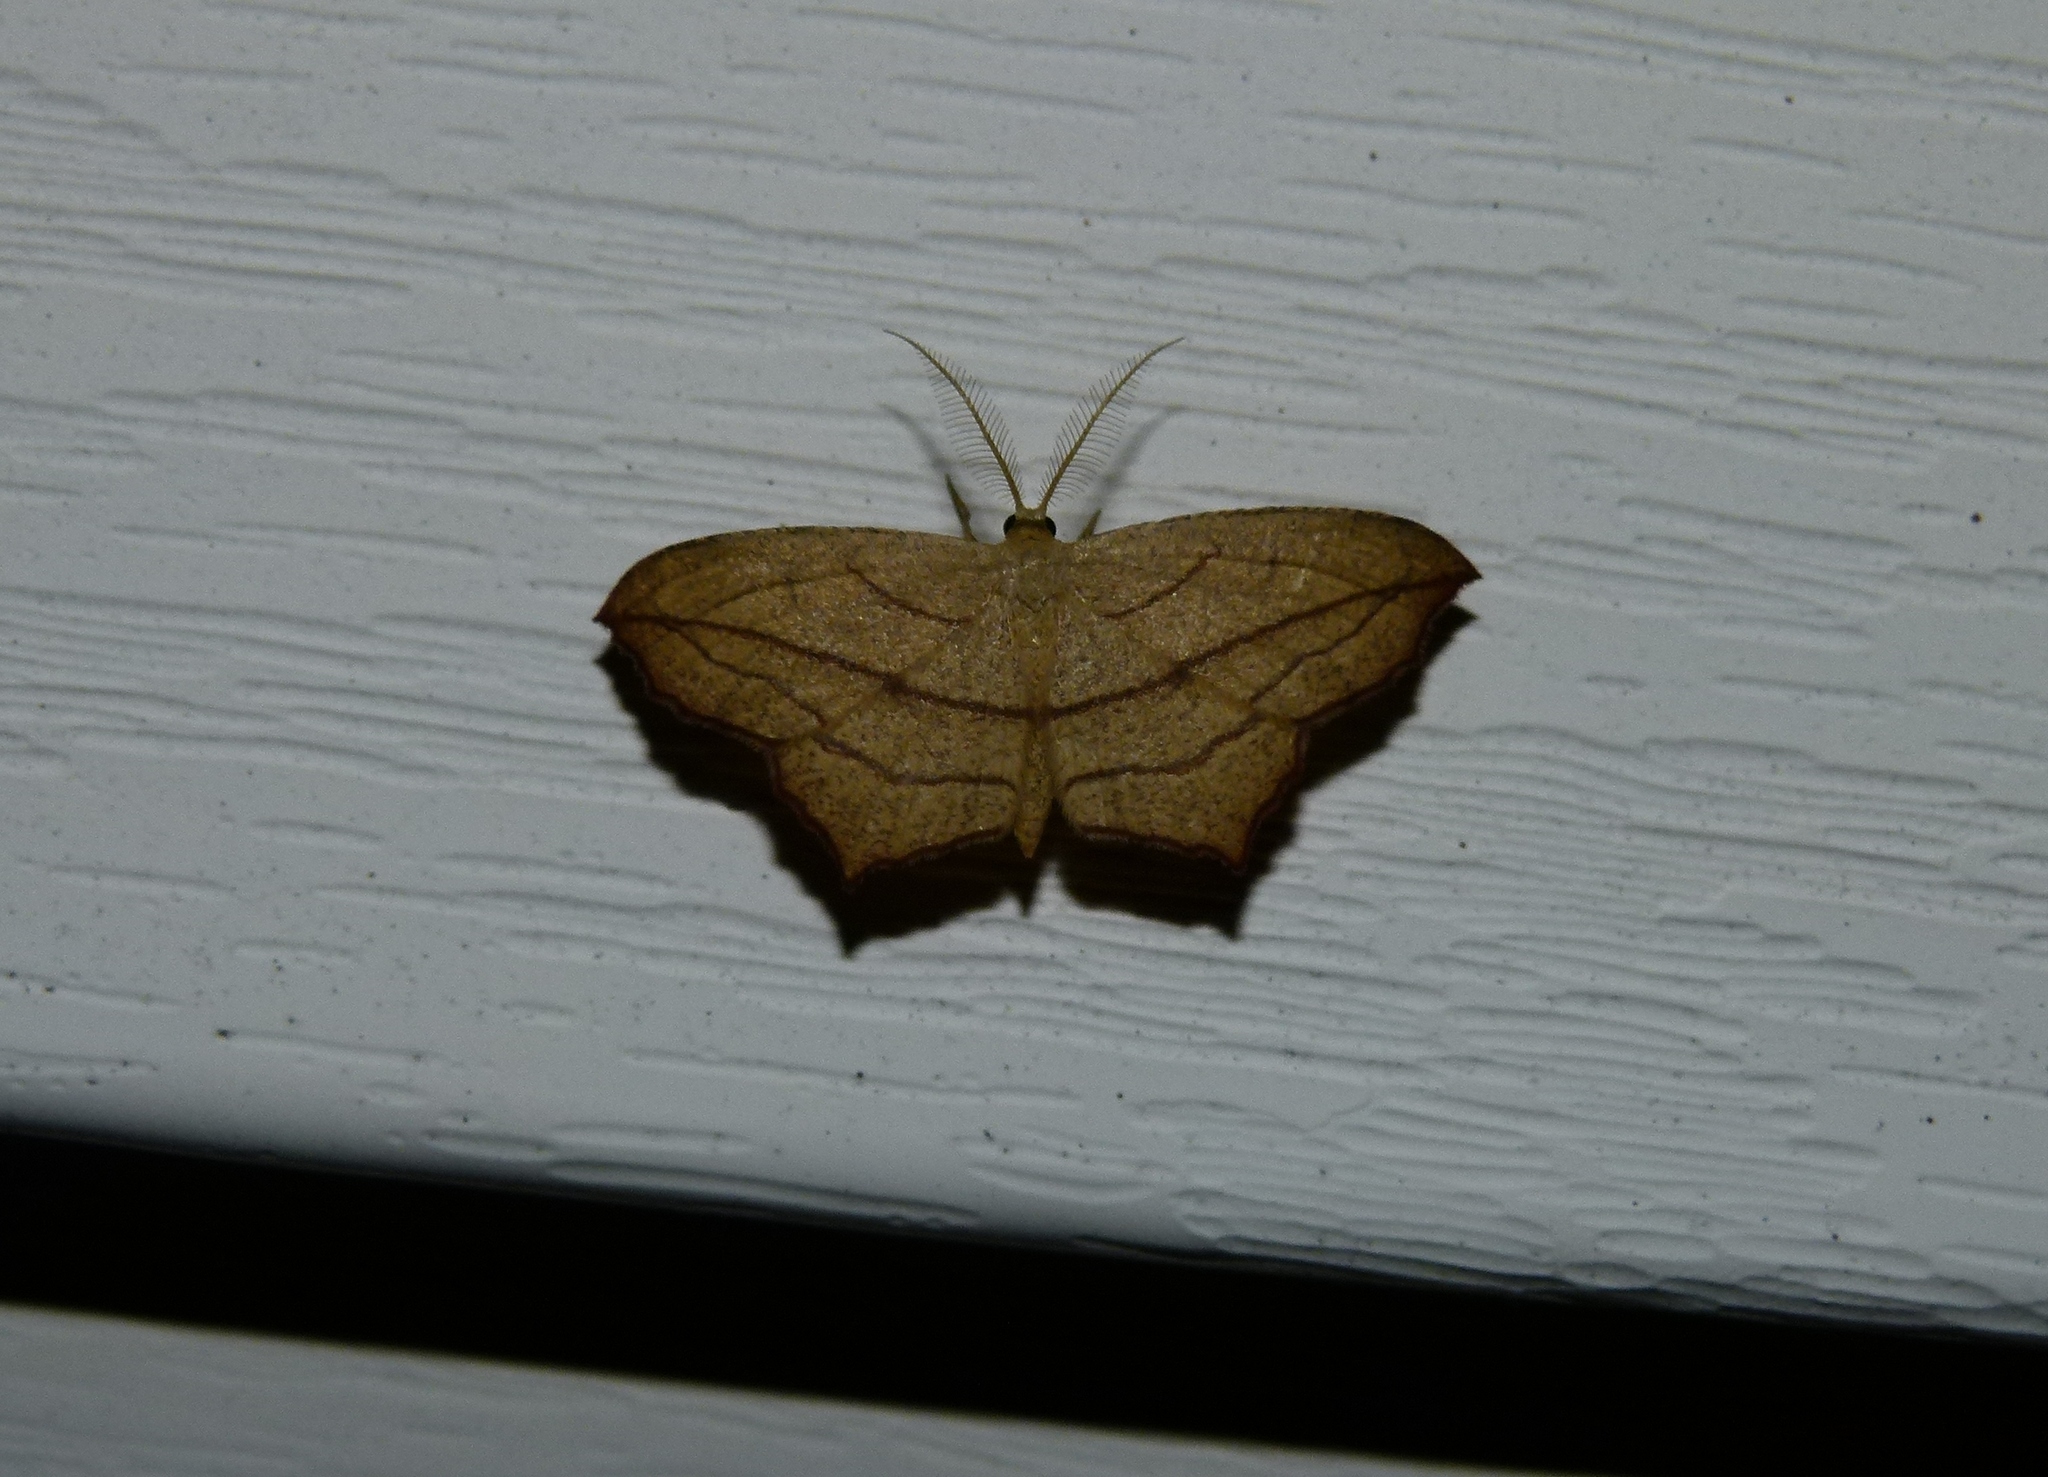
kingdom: Animalia
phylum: Arthropoda
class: Insecta
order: Lepidoptera
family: Geometridae
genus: Timandra
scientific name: Timandra amaturaria
